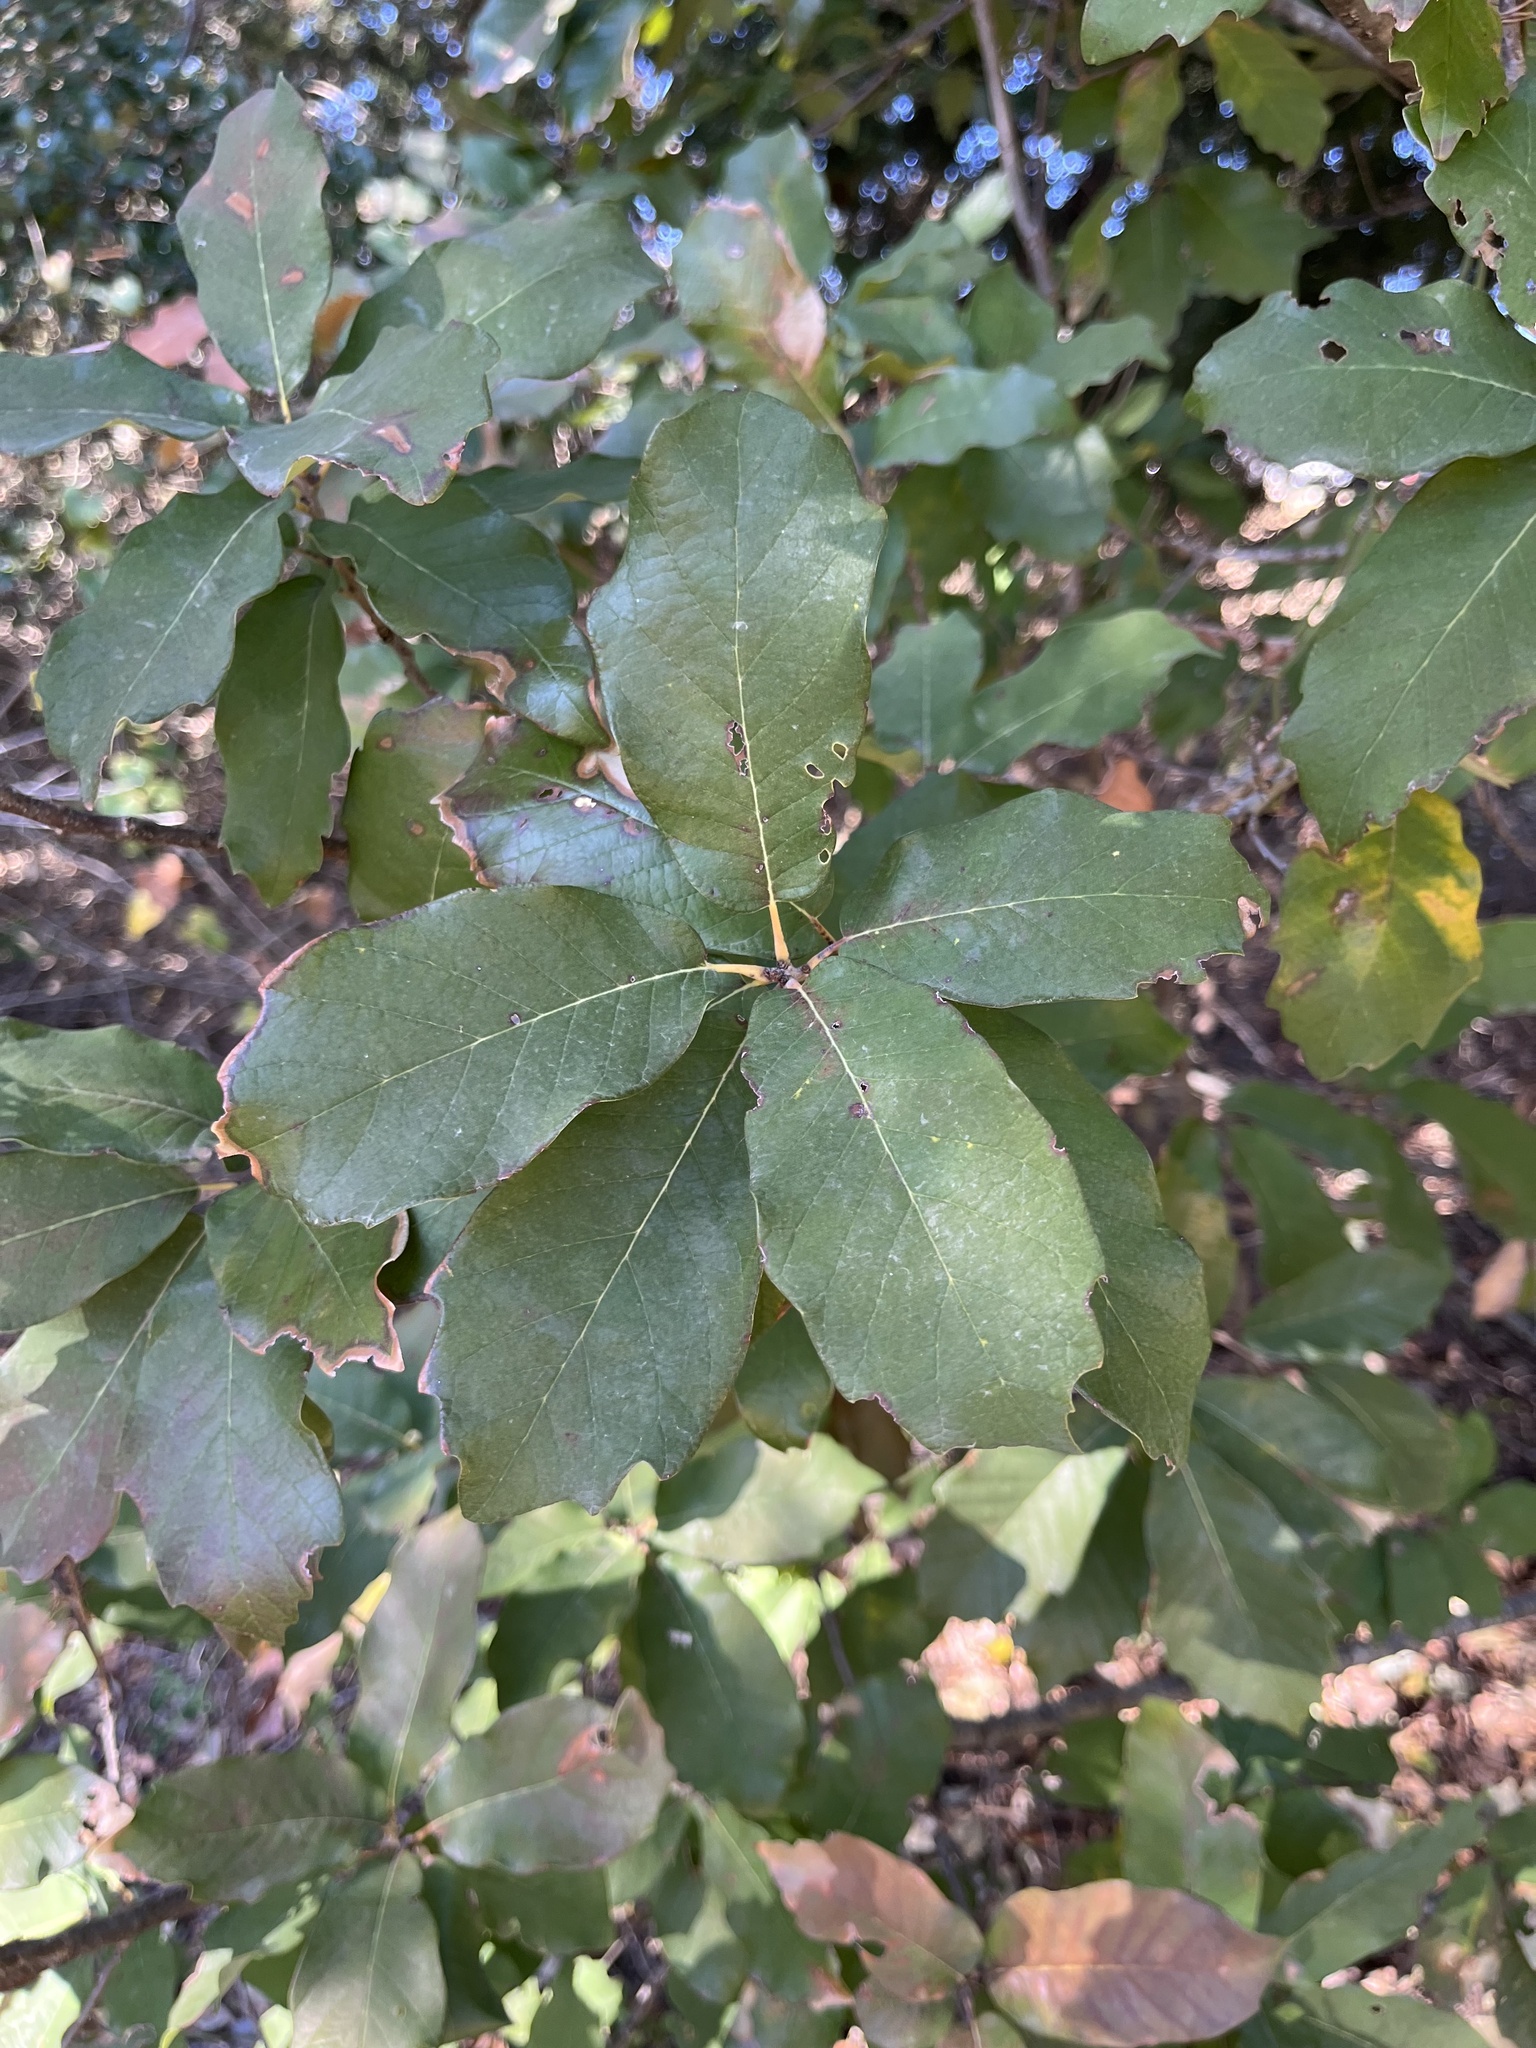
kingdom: Plantae
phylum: Tracheophyta
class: Magnoliopsida
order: Fagales
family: Fagaceae
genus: Quercus
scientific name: Quercus polymorpha
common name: Mexican white oak
